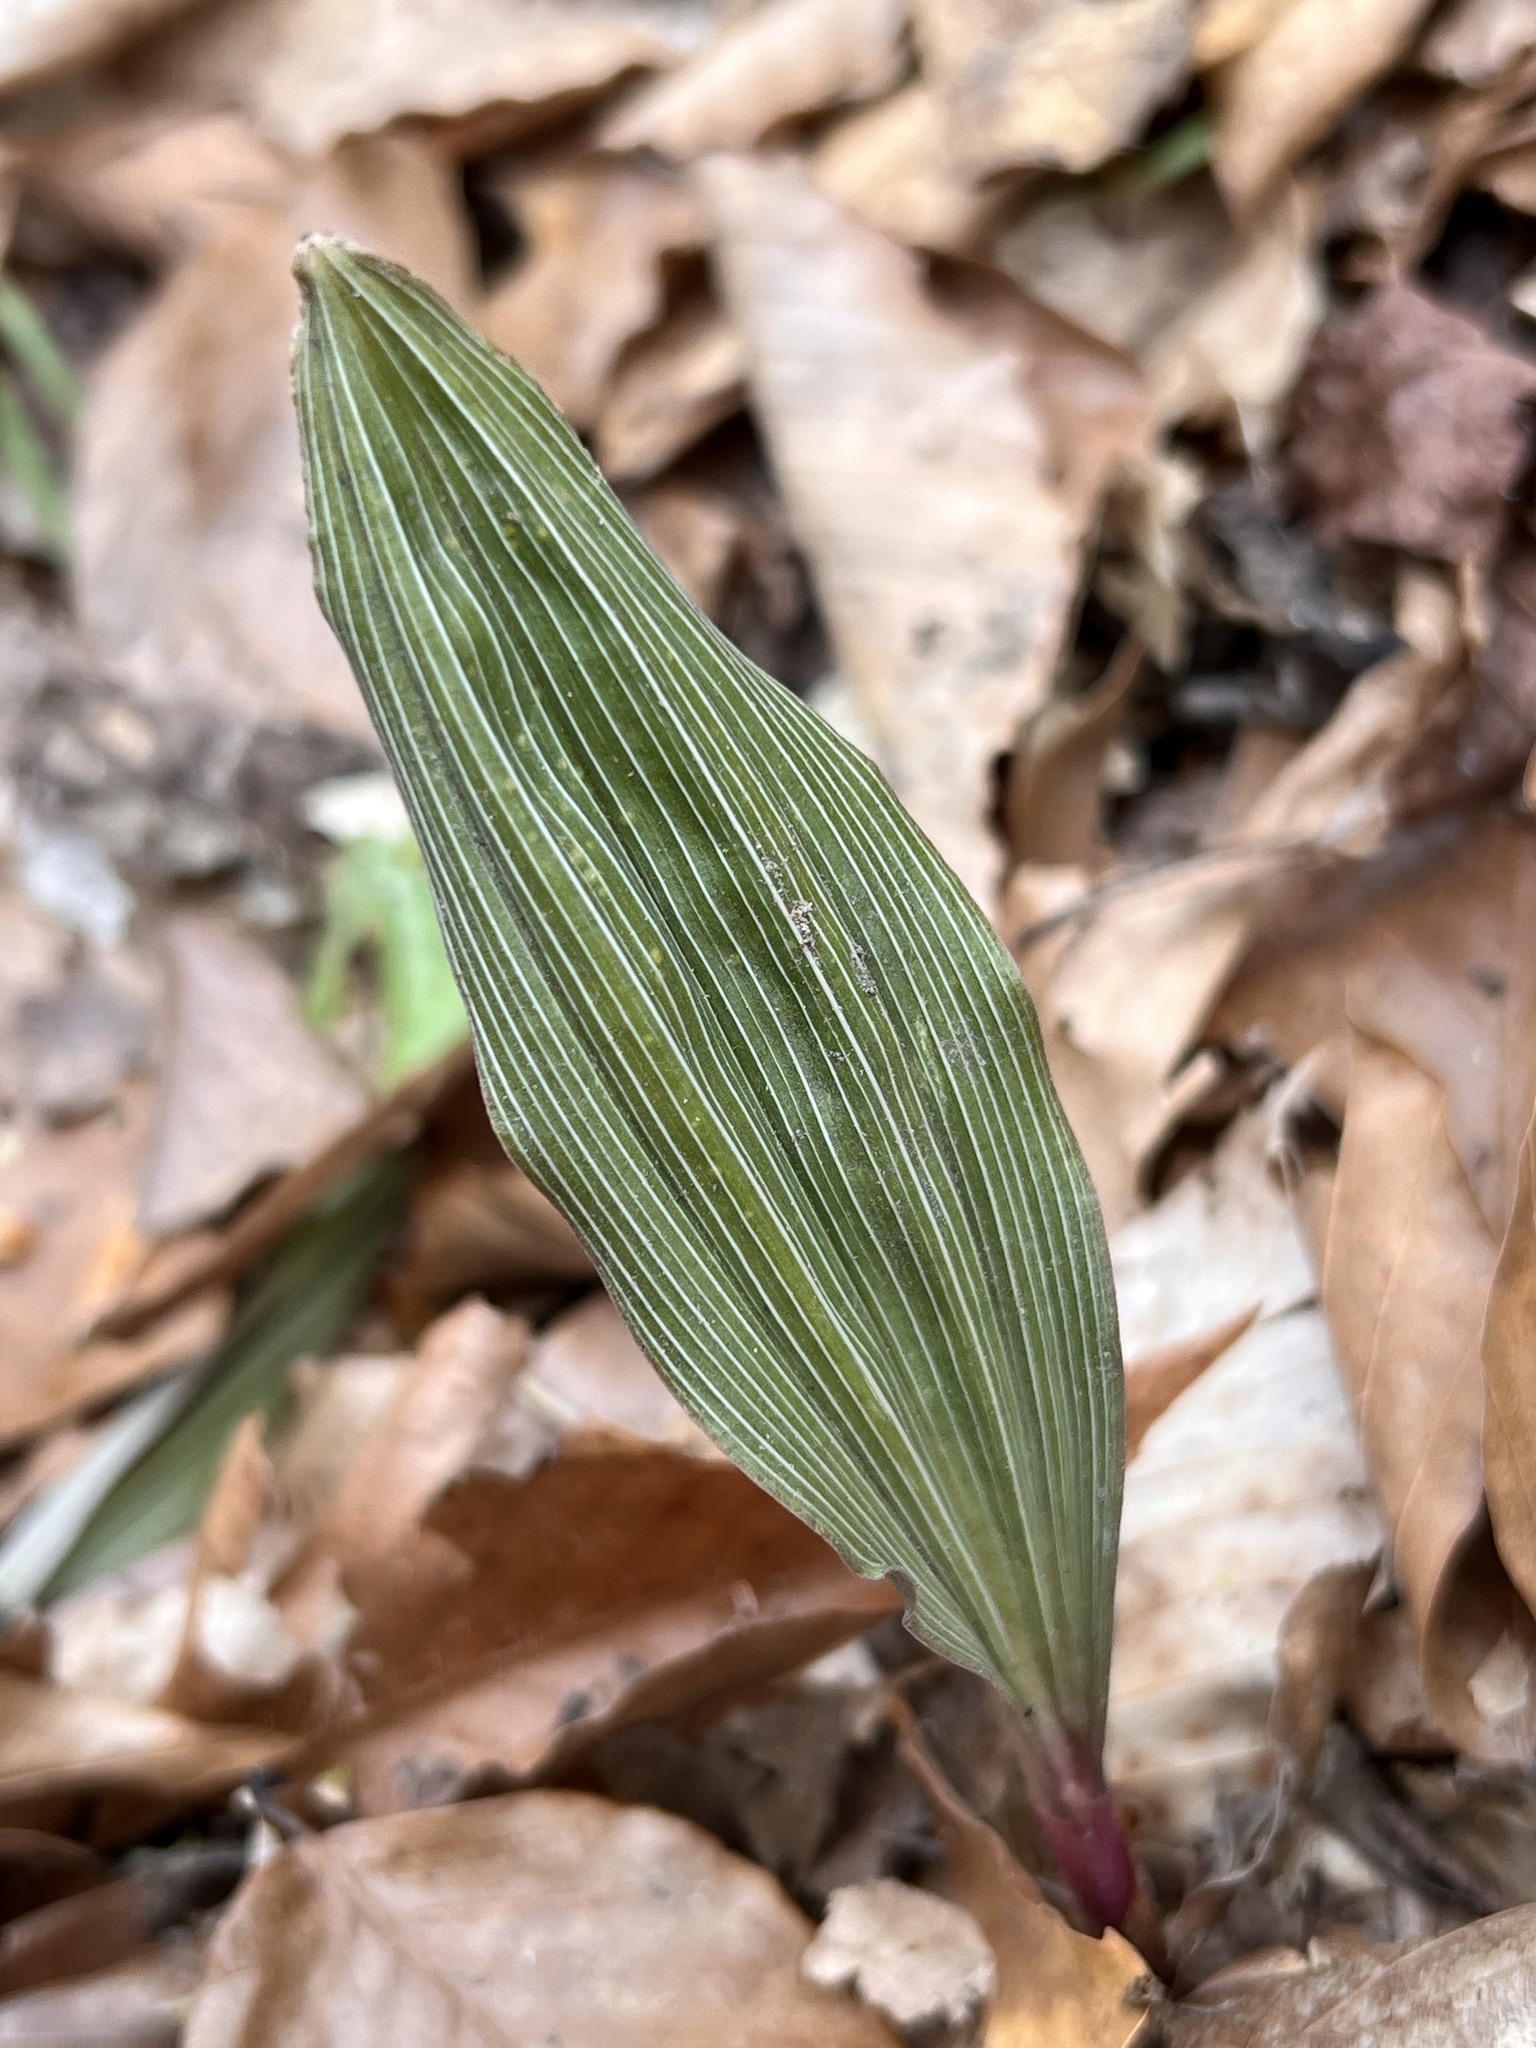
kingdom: Plantae
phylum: Tracheophyta
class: Liliopsida
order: Asparagales
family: Orchidaceae
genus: Aplectrum
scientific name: Aplectrum hyemale
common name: Adam-and-eve
